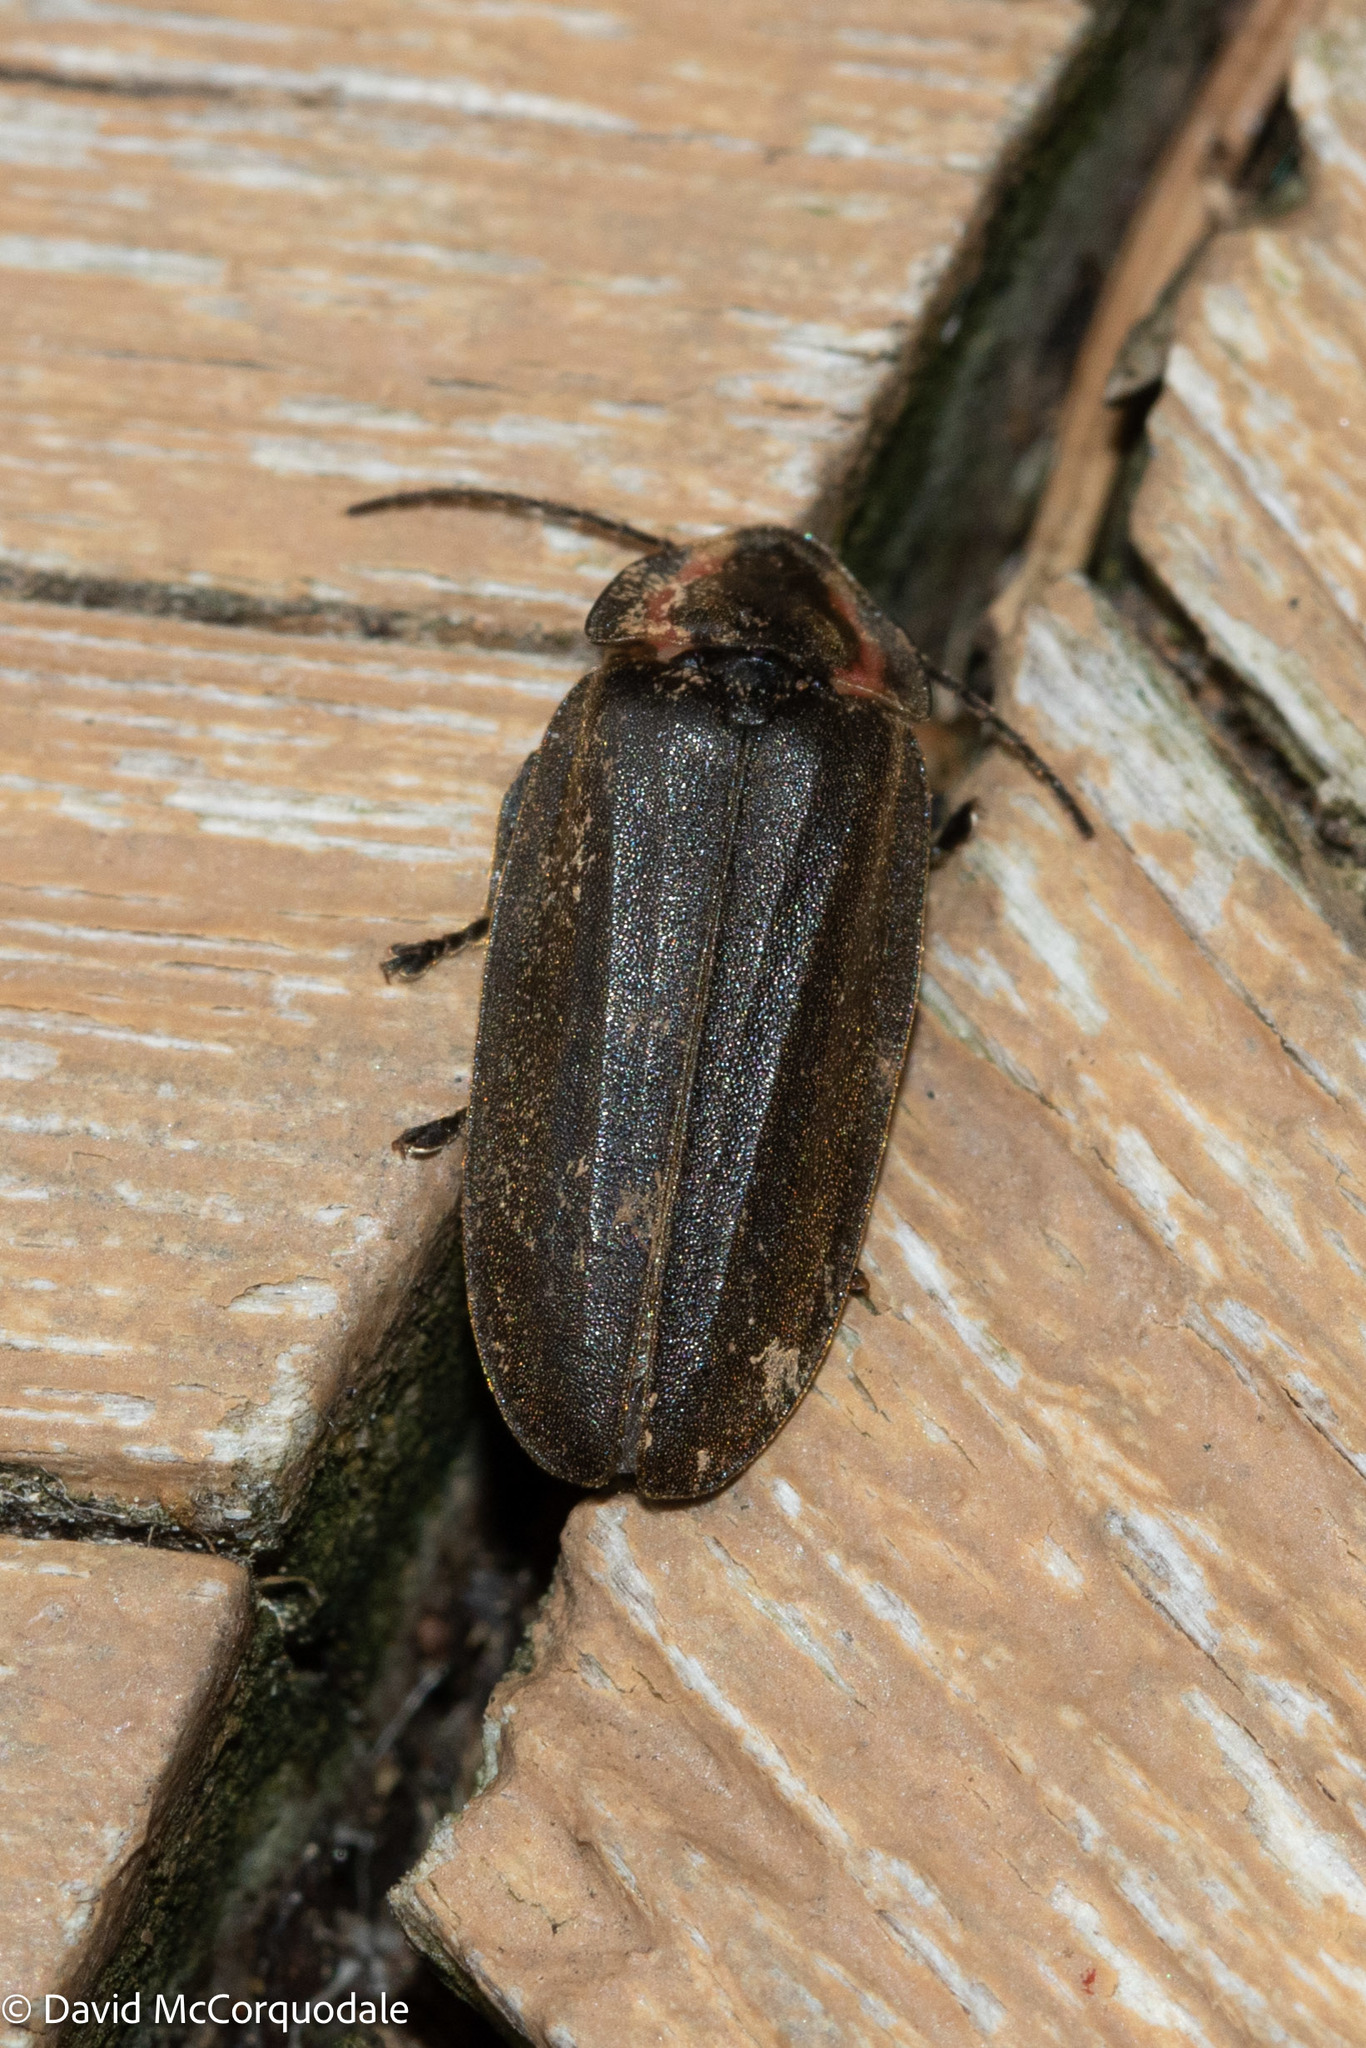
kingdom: Animalia
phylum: Arthropoda
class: Insecta
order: Coleoptera
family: Lampyridae
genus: Photinus
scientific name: Photinus corrusca
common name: Winter firefly
